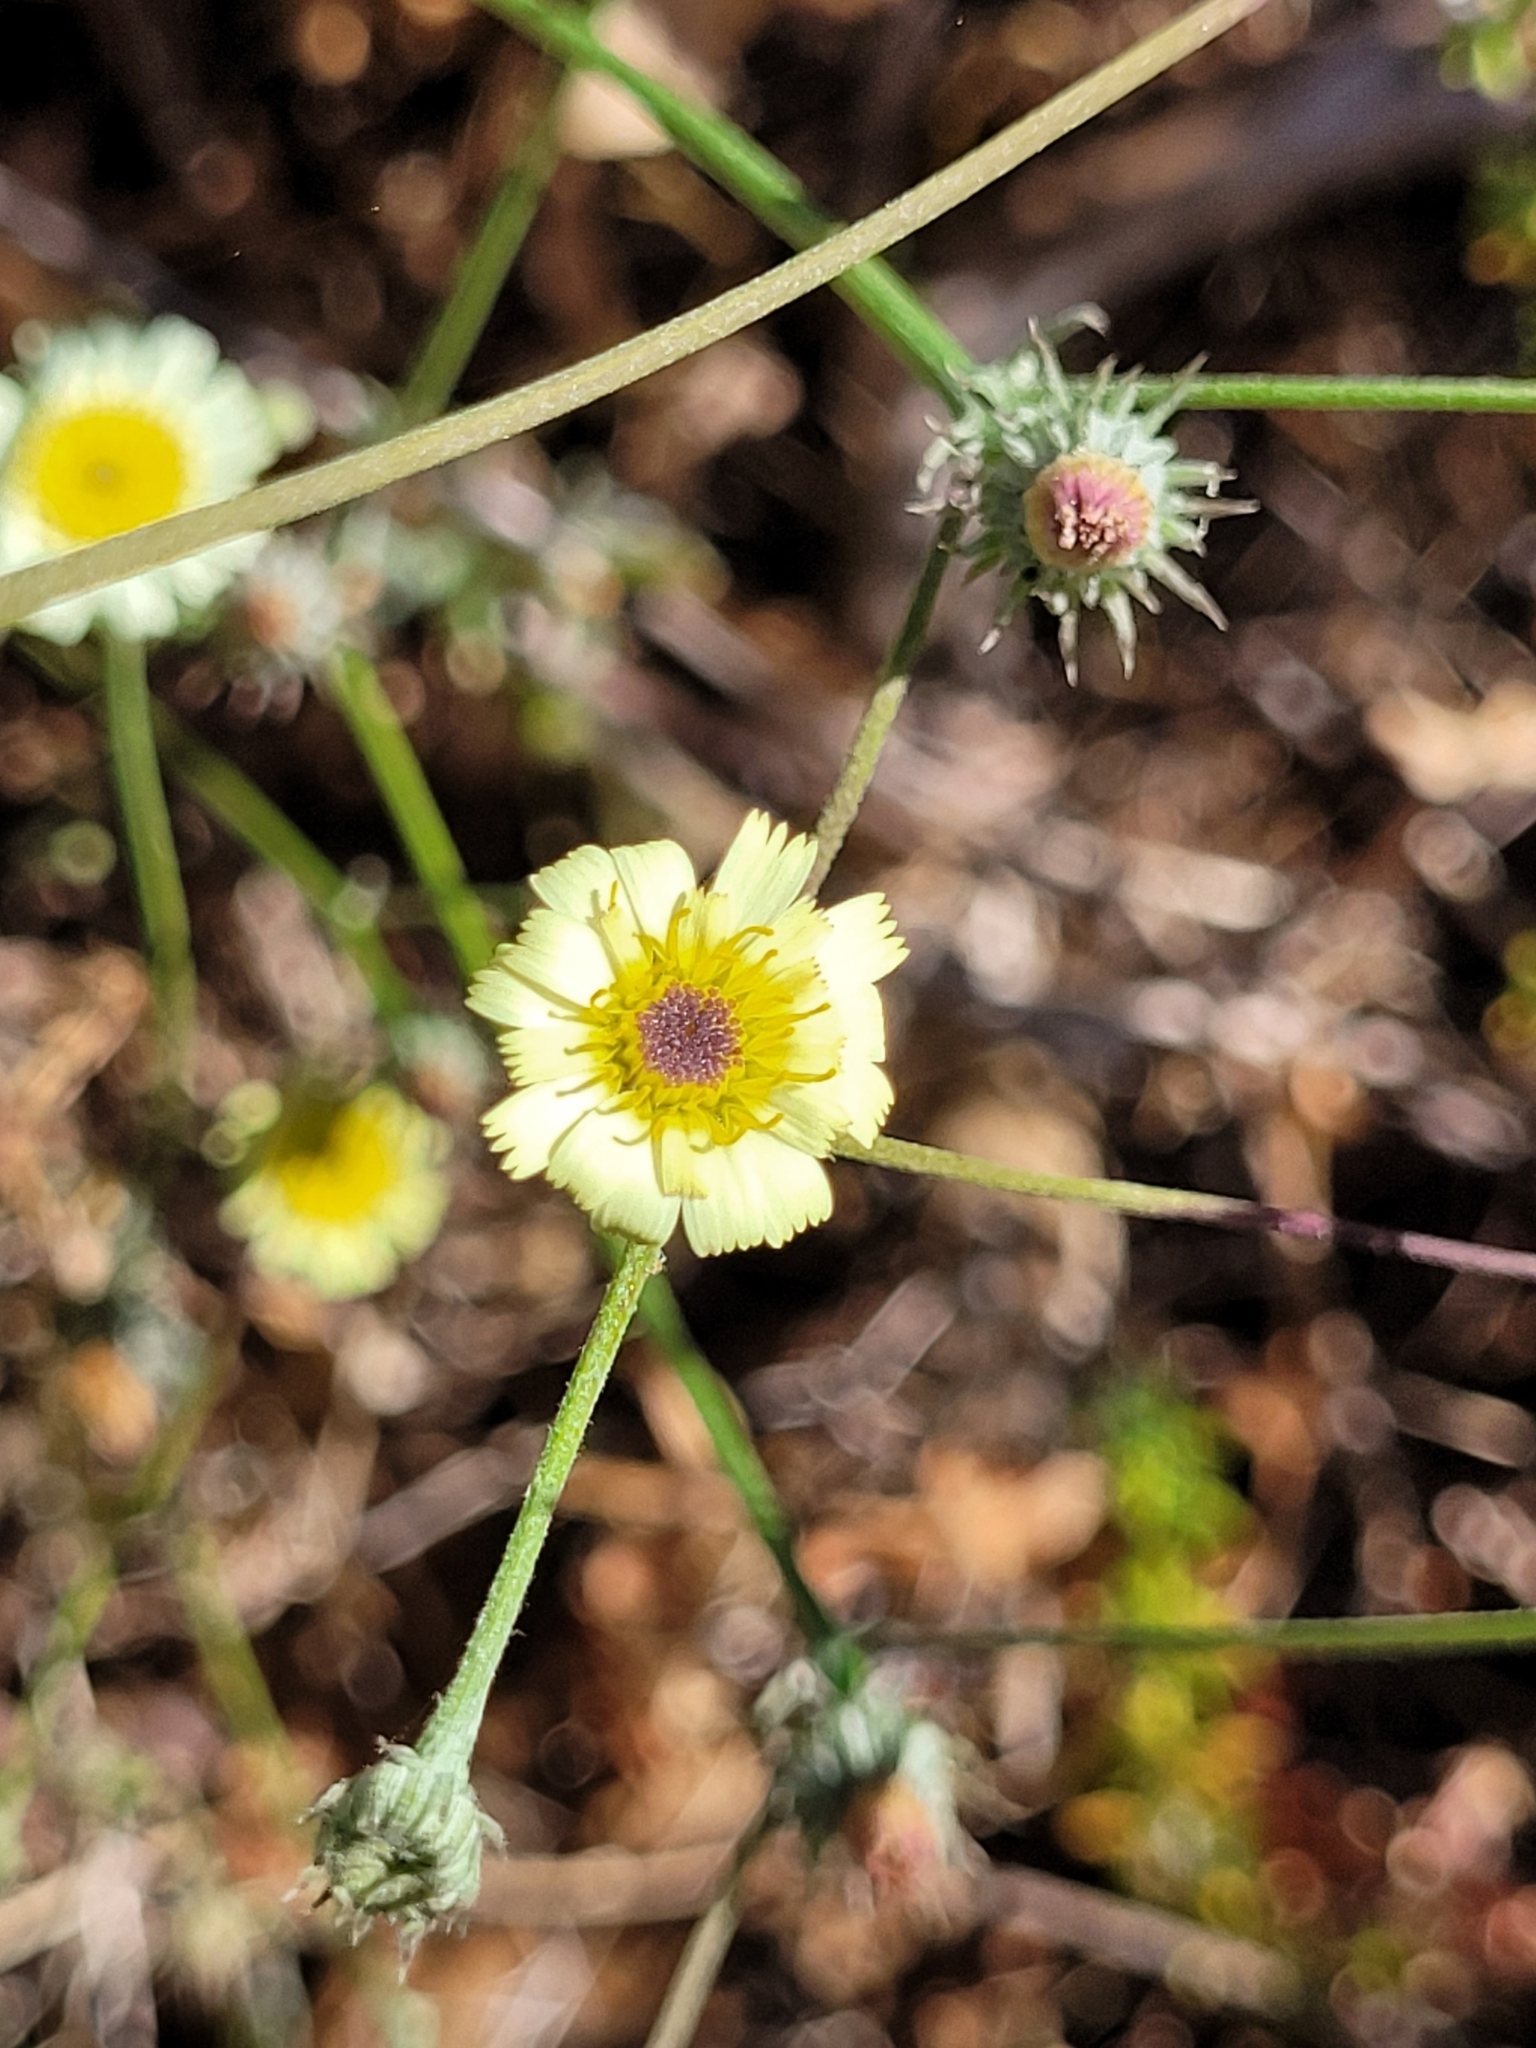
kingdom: Plantae
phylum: Tracheophyta
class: Magnoliopsida
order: Asterales
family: Asteraceae
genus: Tolpis
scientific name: Tolpis barbata
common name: Yellow hawkweed
